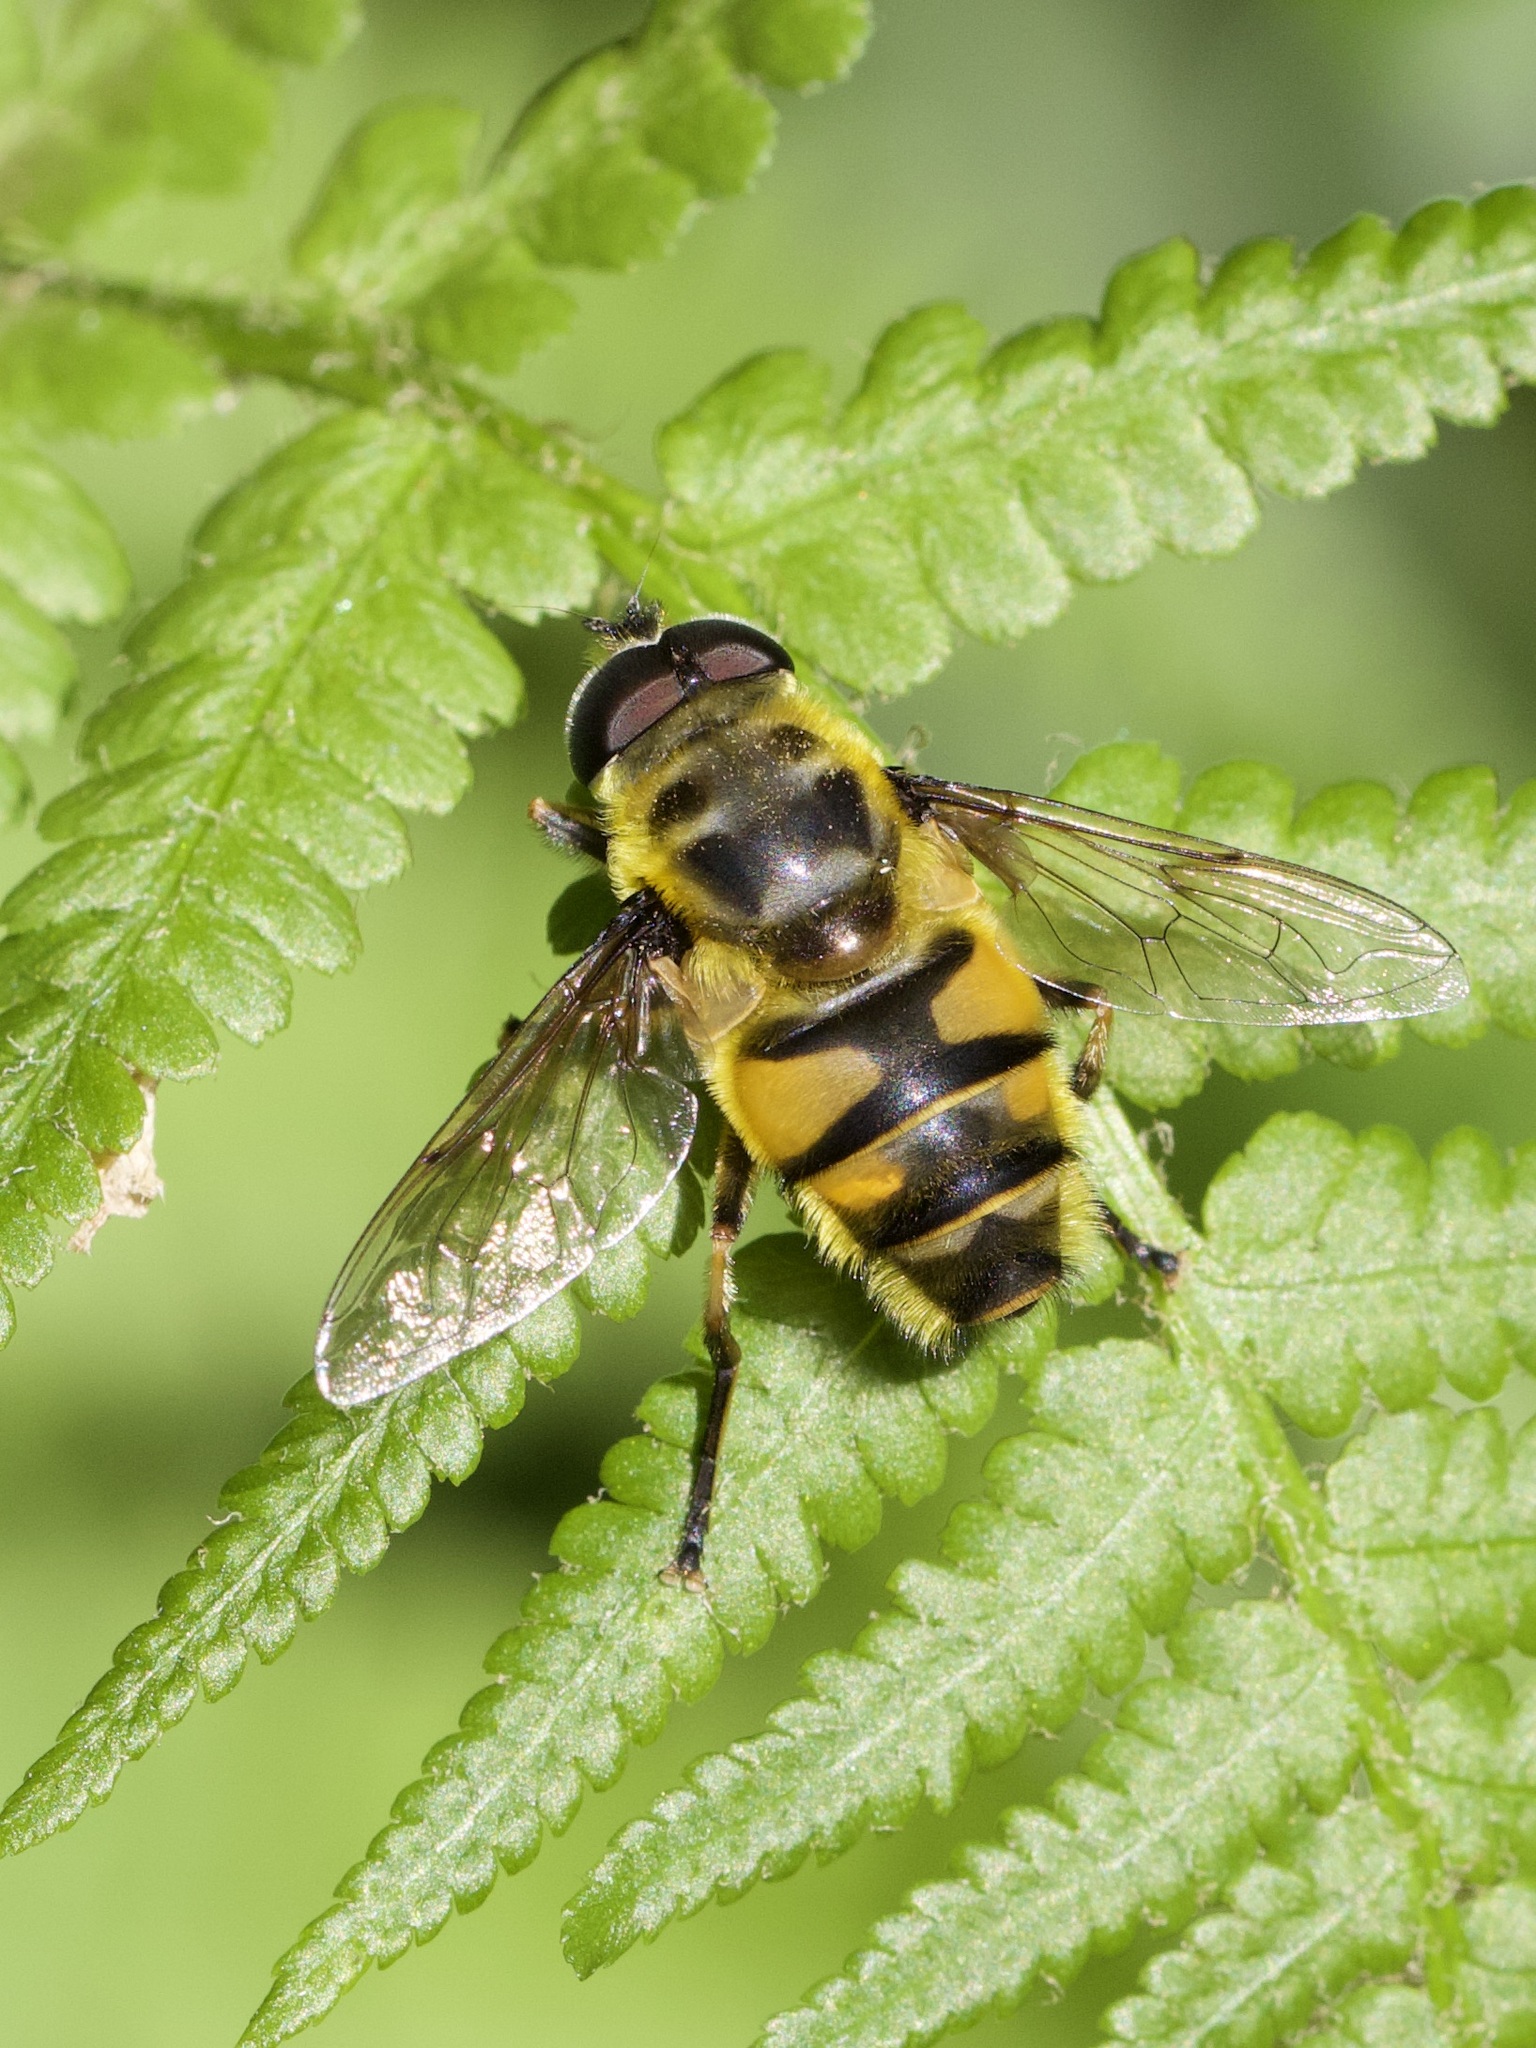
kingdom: Animalia
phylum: Arthropoda
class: Insecta
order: Diptera
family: Syrphidae
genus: Myathropa
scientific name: Myathropa florea
